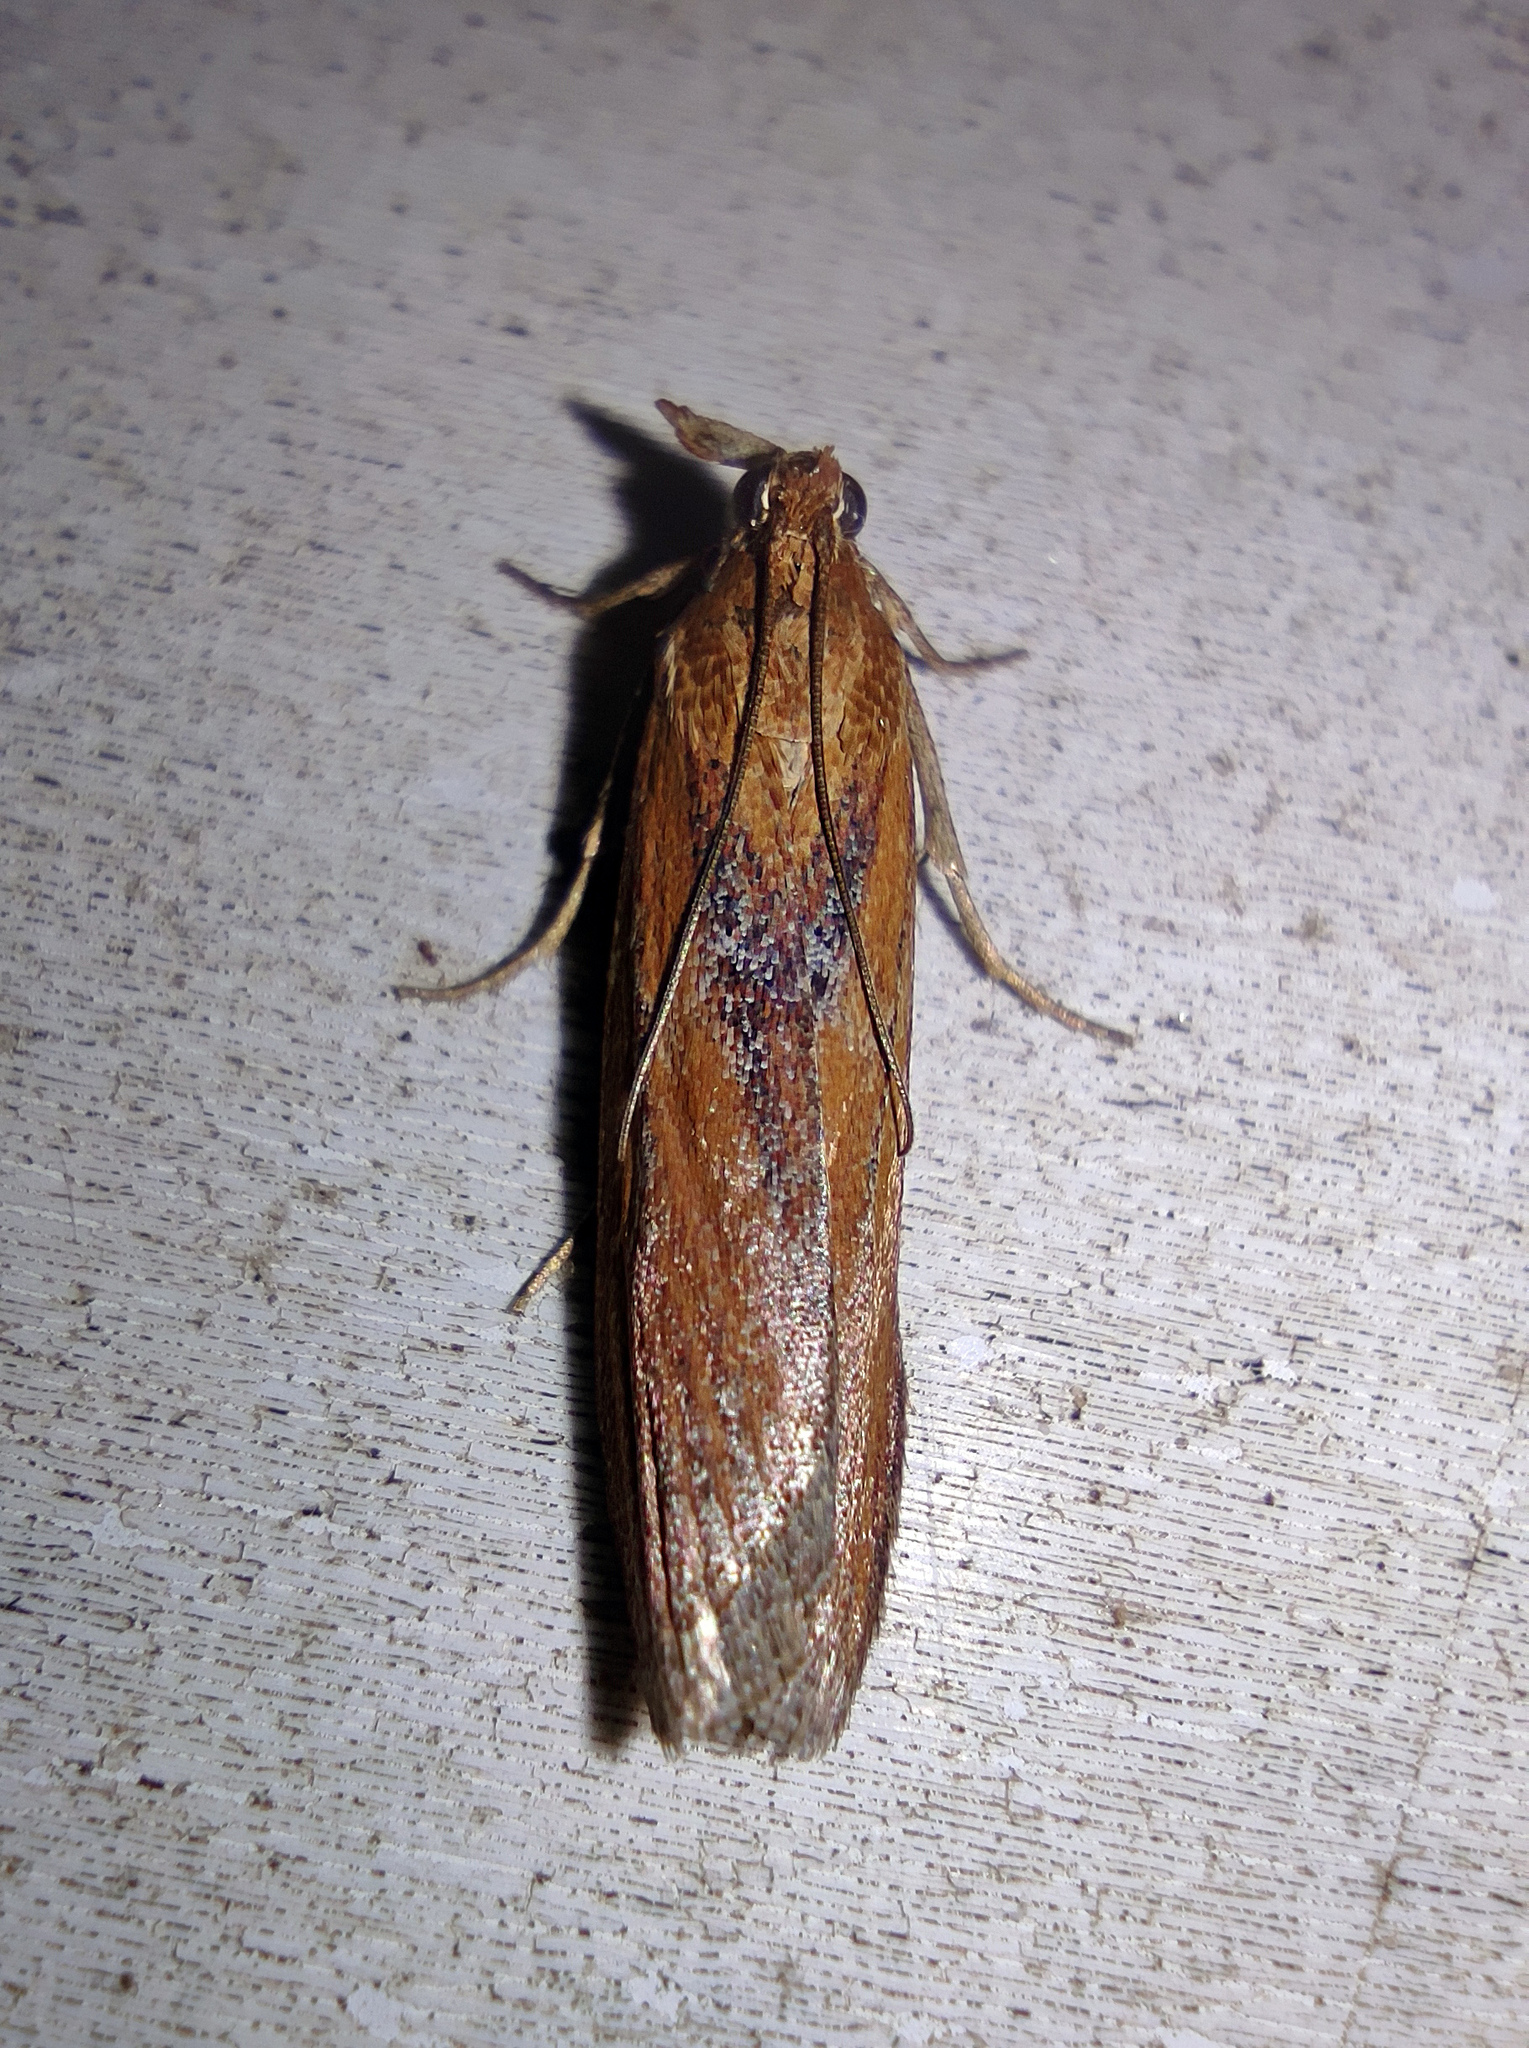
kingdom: Animalia
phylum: Arthropoda
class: Insecta
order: Lepidoptera
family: Pyralidae
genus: Selagia
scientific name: Selagia spadicella
